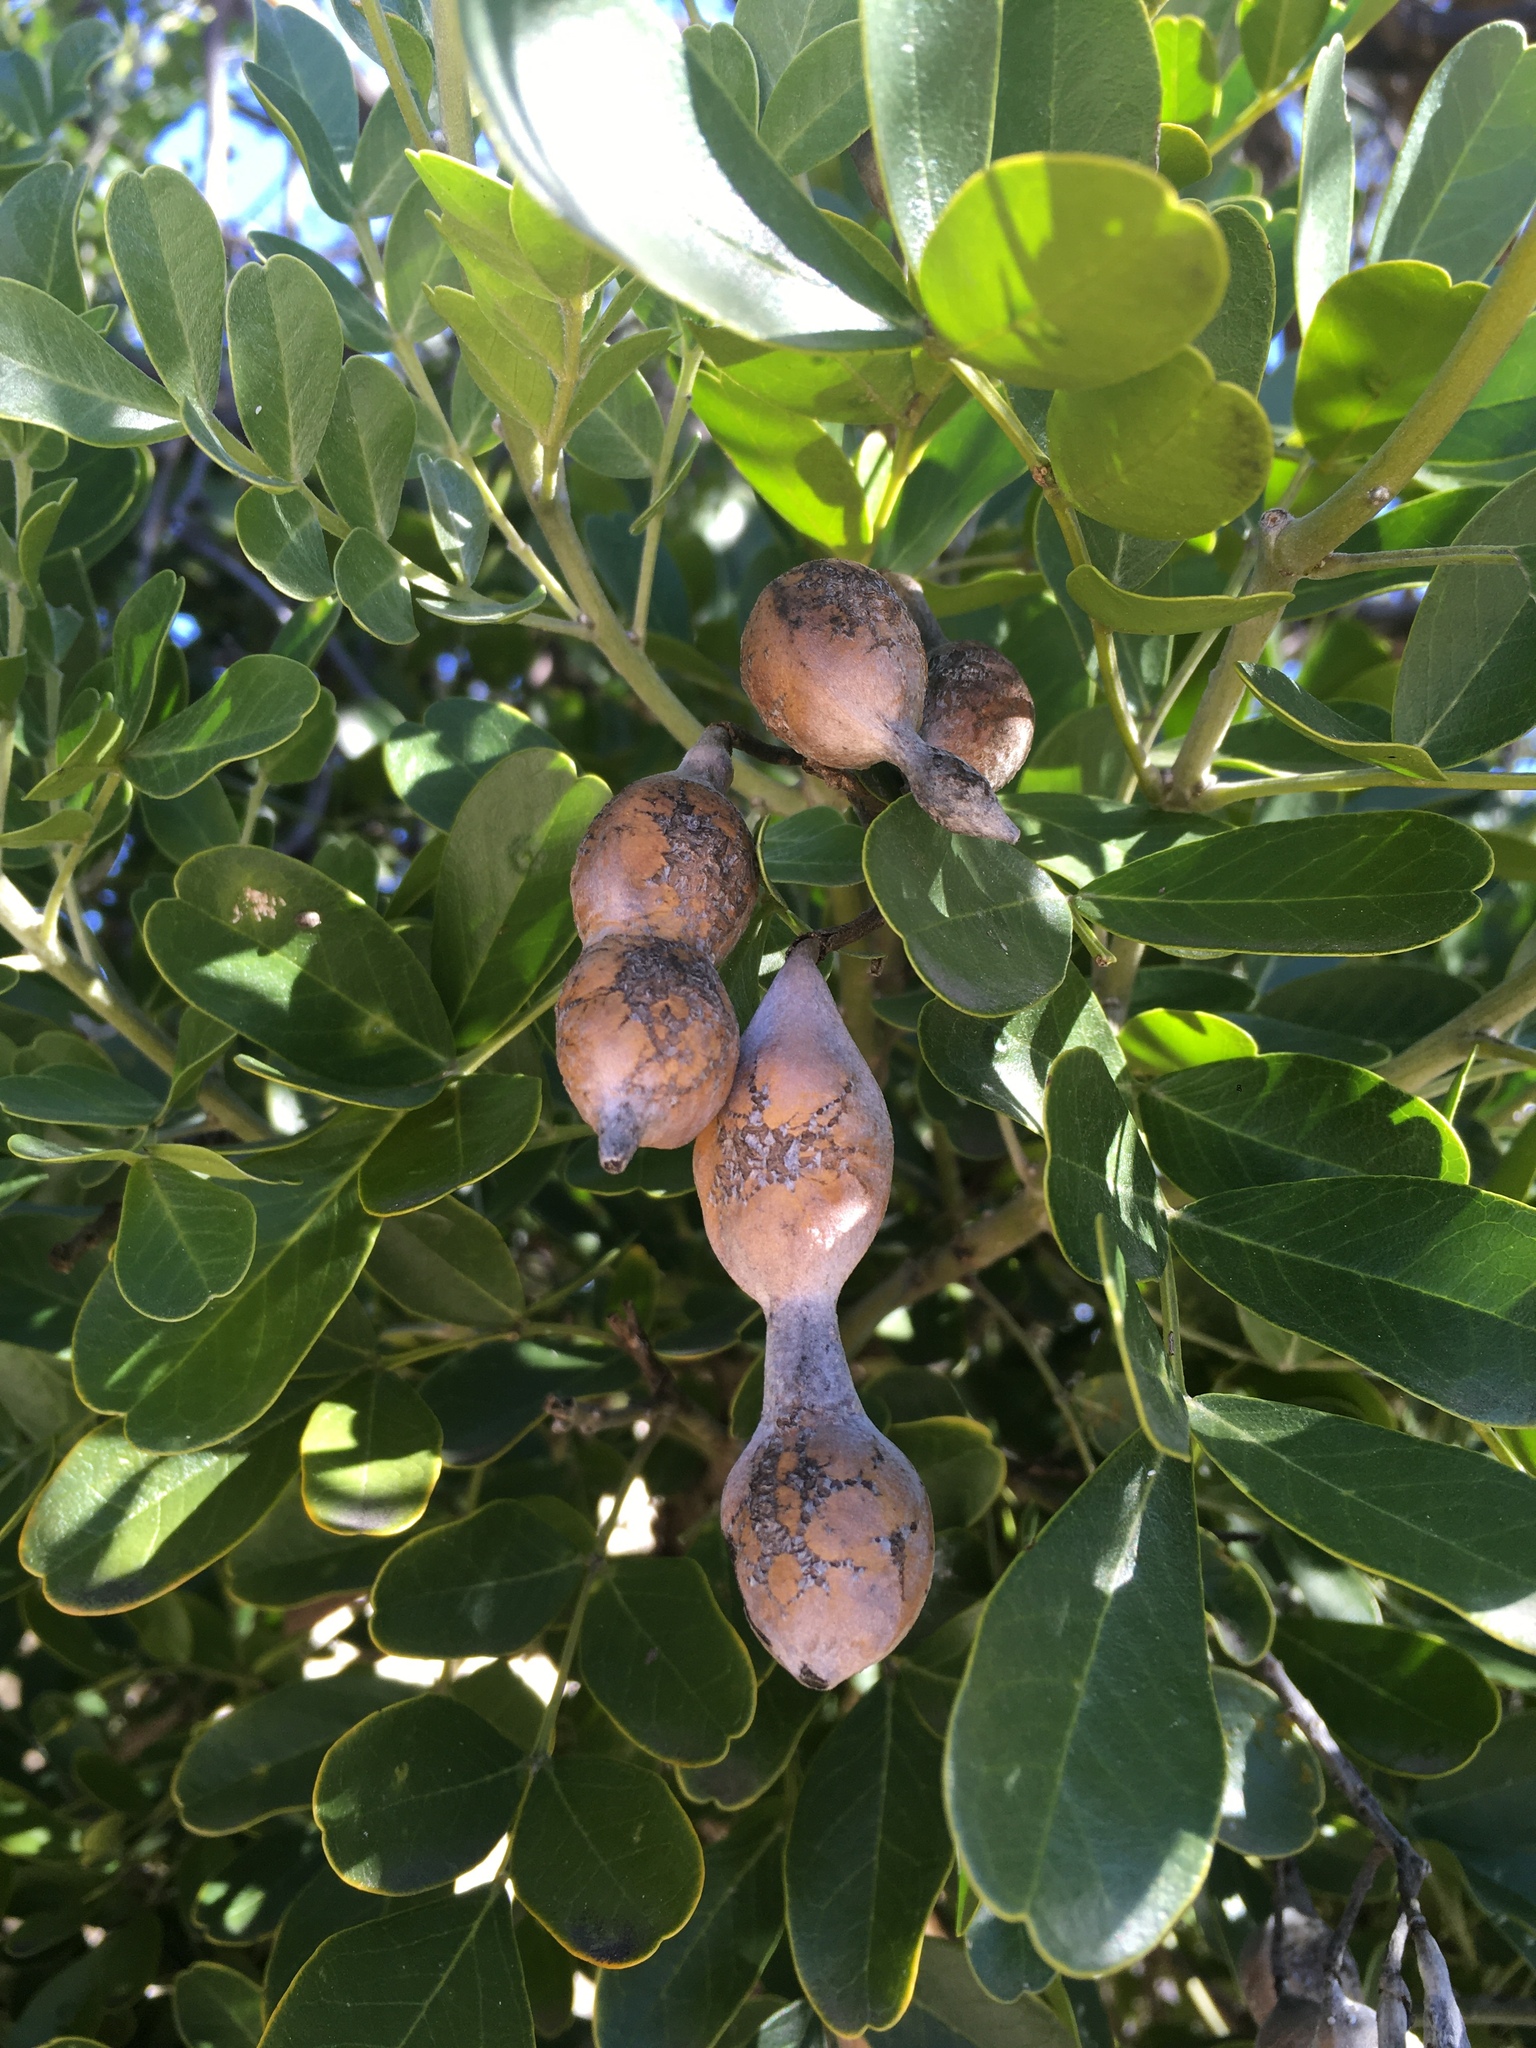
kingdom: Plantae
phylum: Tracheophyta
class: Magnoliopsida
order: Fabales
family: Fabaceae
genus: Dermatophyllum
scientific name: Dermatophyllum secundiflorum
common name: Texas-mountain-laurel
